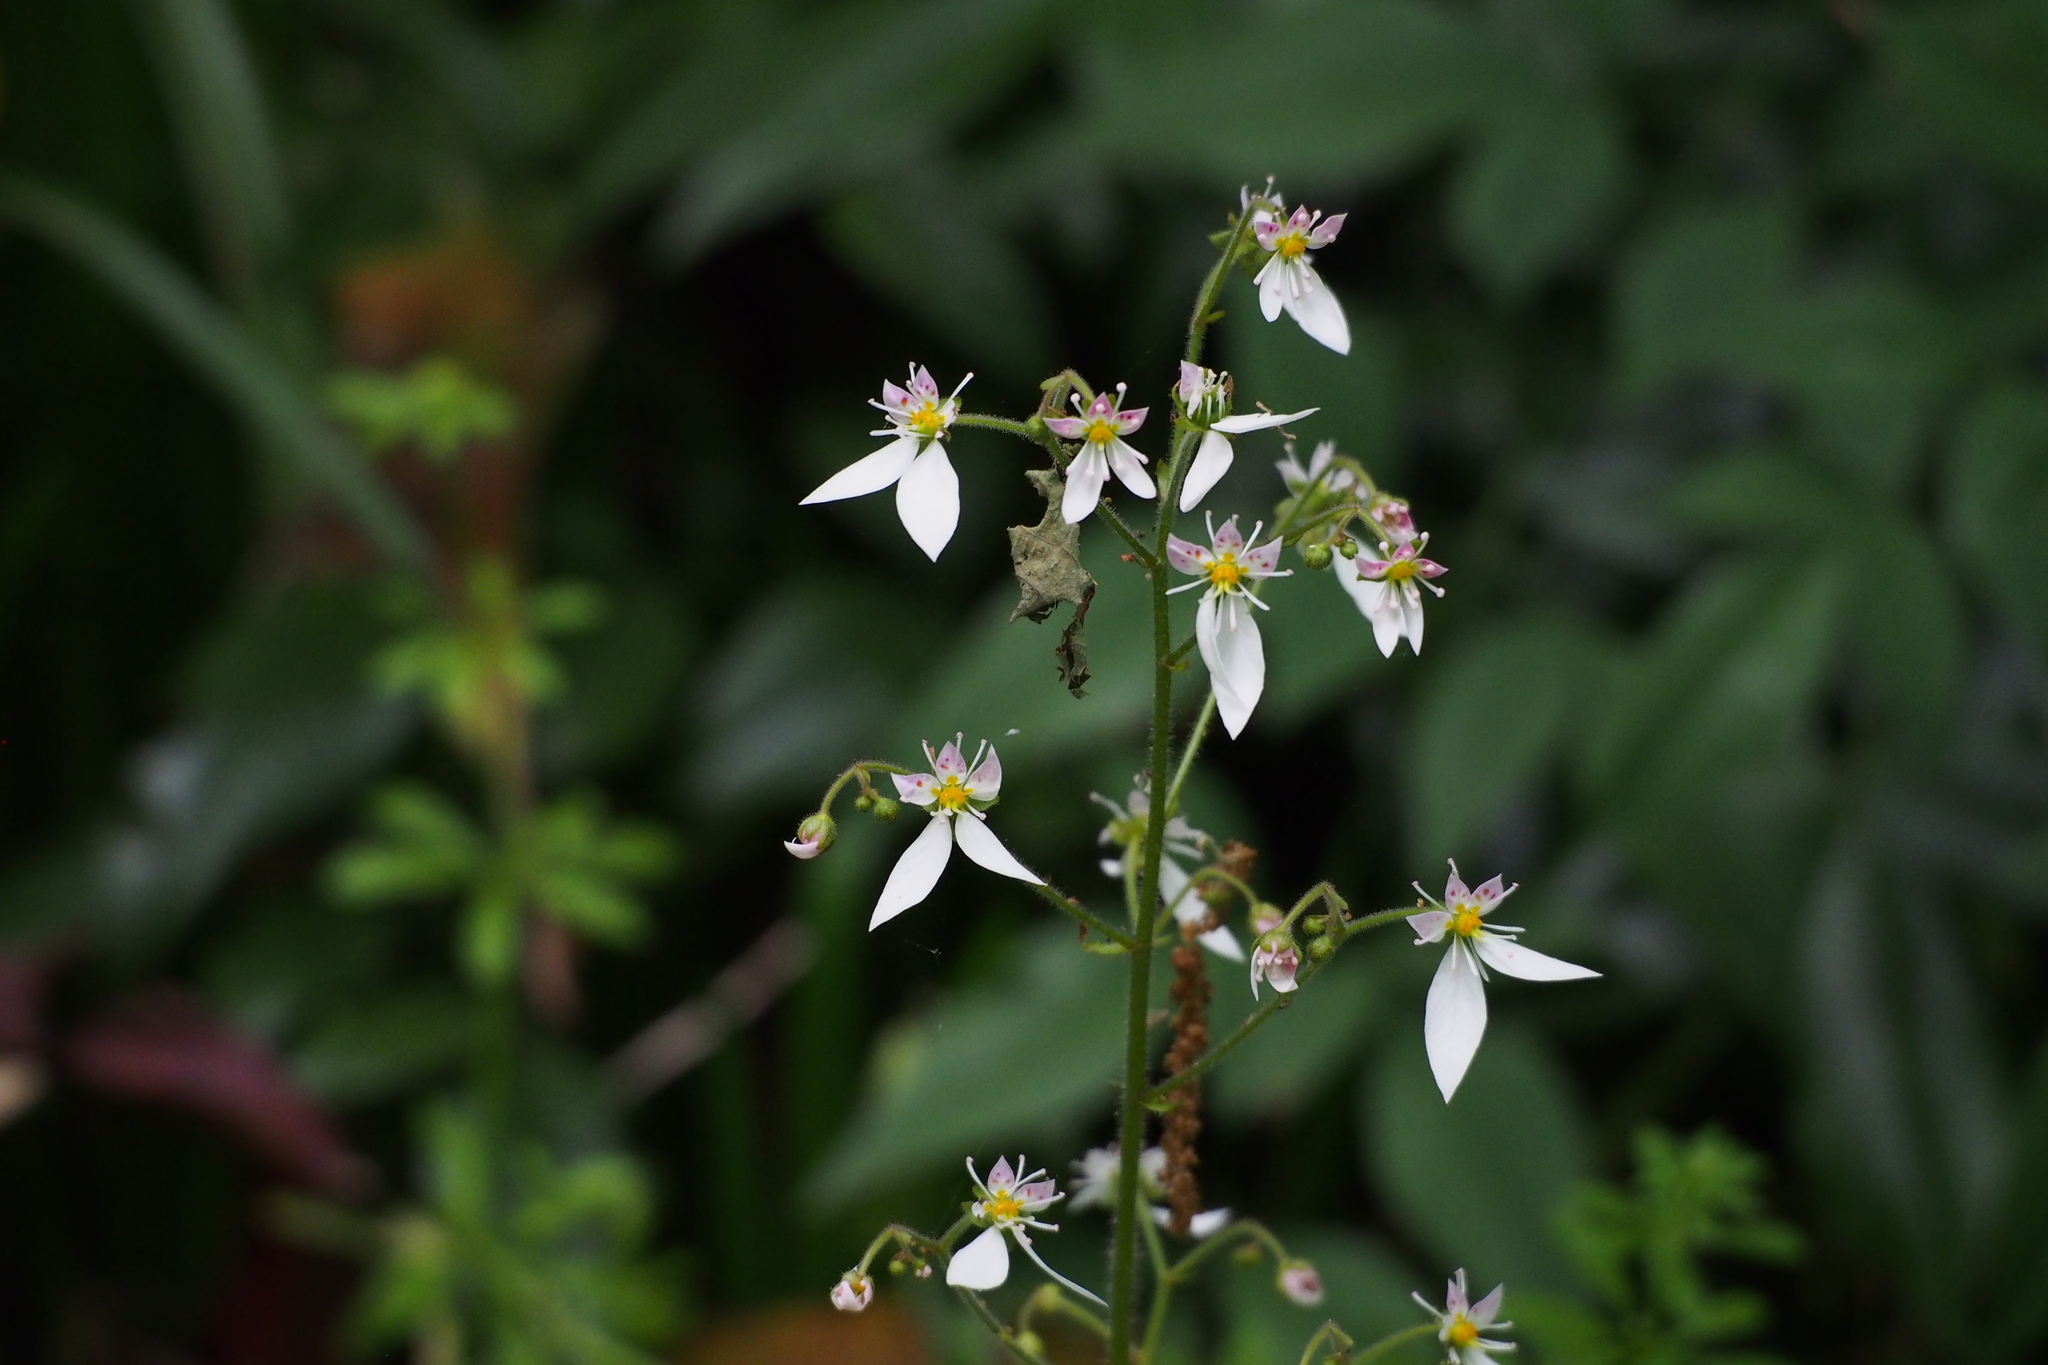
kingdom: Plantae
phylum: Tracheophyta
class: Magnoliopsida
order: Saxifragales
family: Saxifragaceae
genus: Saxifraga
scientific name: Saxifraga stolonifera
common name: Creeping saxifrage
